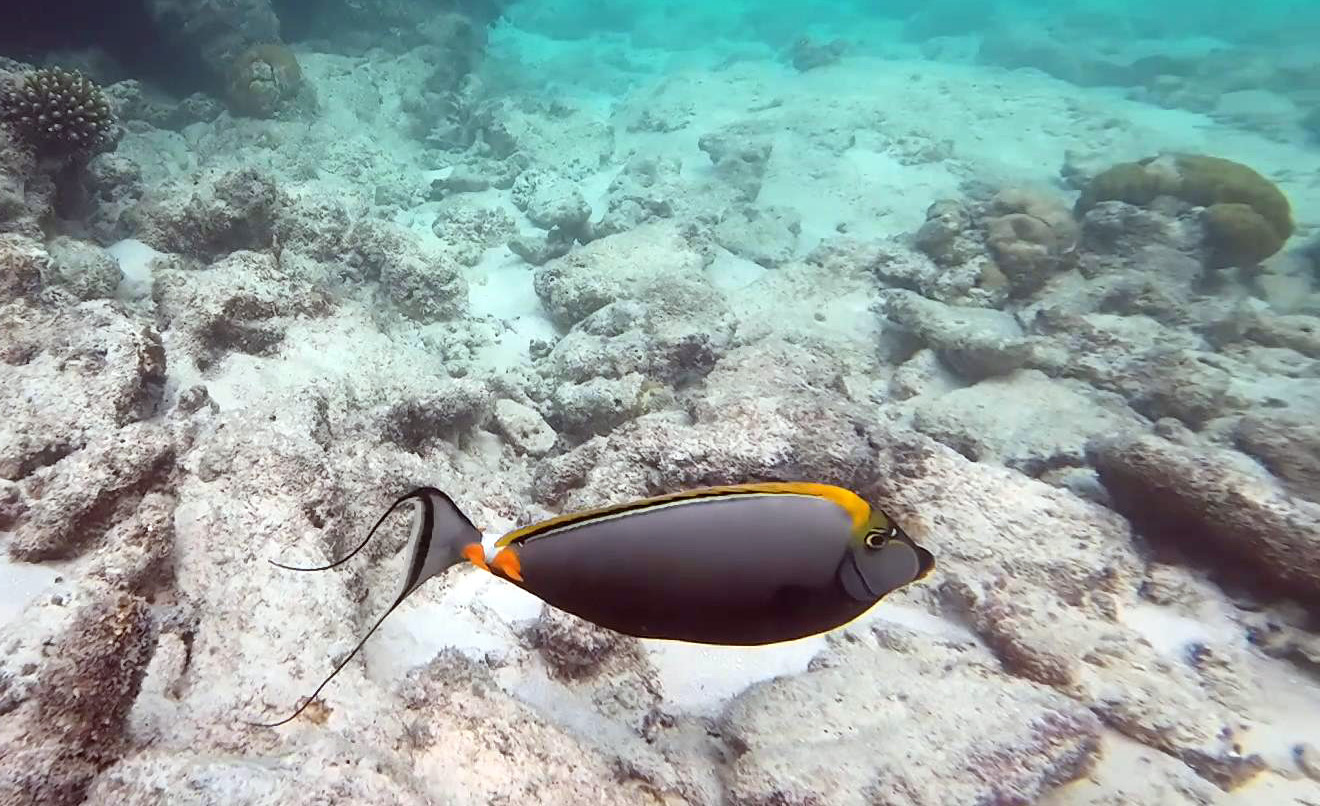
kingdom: Animalia
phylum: Chordata
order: Perciformes
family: Acanthuridae
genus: Naso
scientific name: Naso elegans
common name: Orangespine unicornfish
